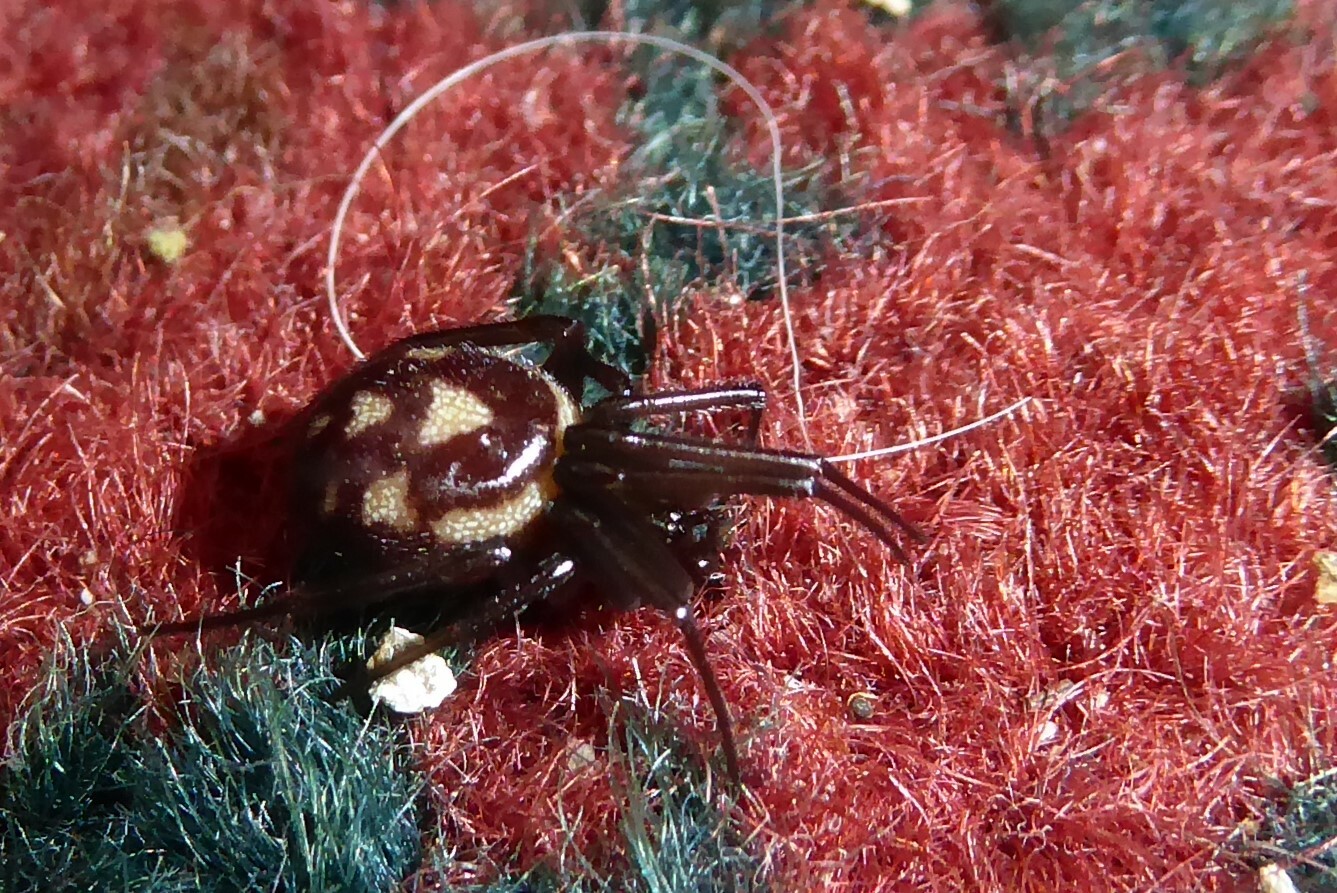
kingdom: Animalia
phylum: Arthropoda
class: Arachnida
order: Araneae
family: Theridiidae
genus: Steatoda
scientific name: Steatoda grossa
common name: False black widow
